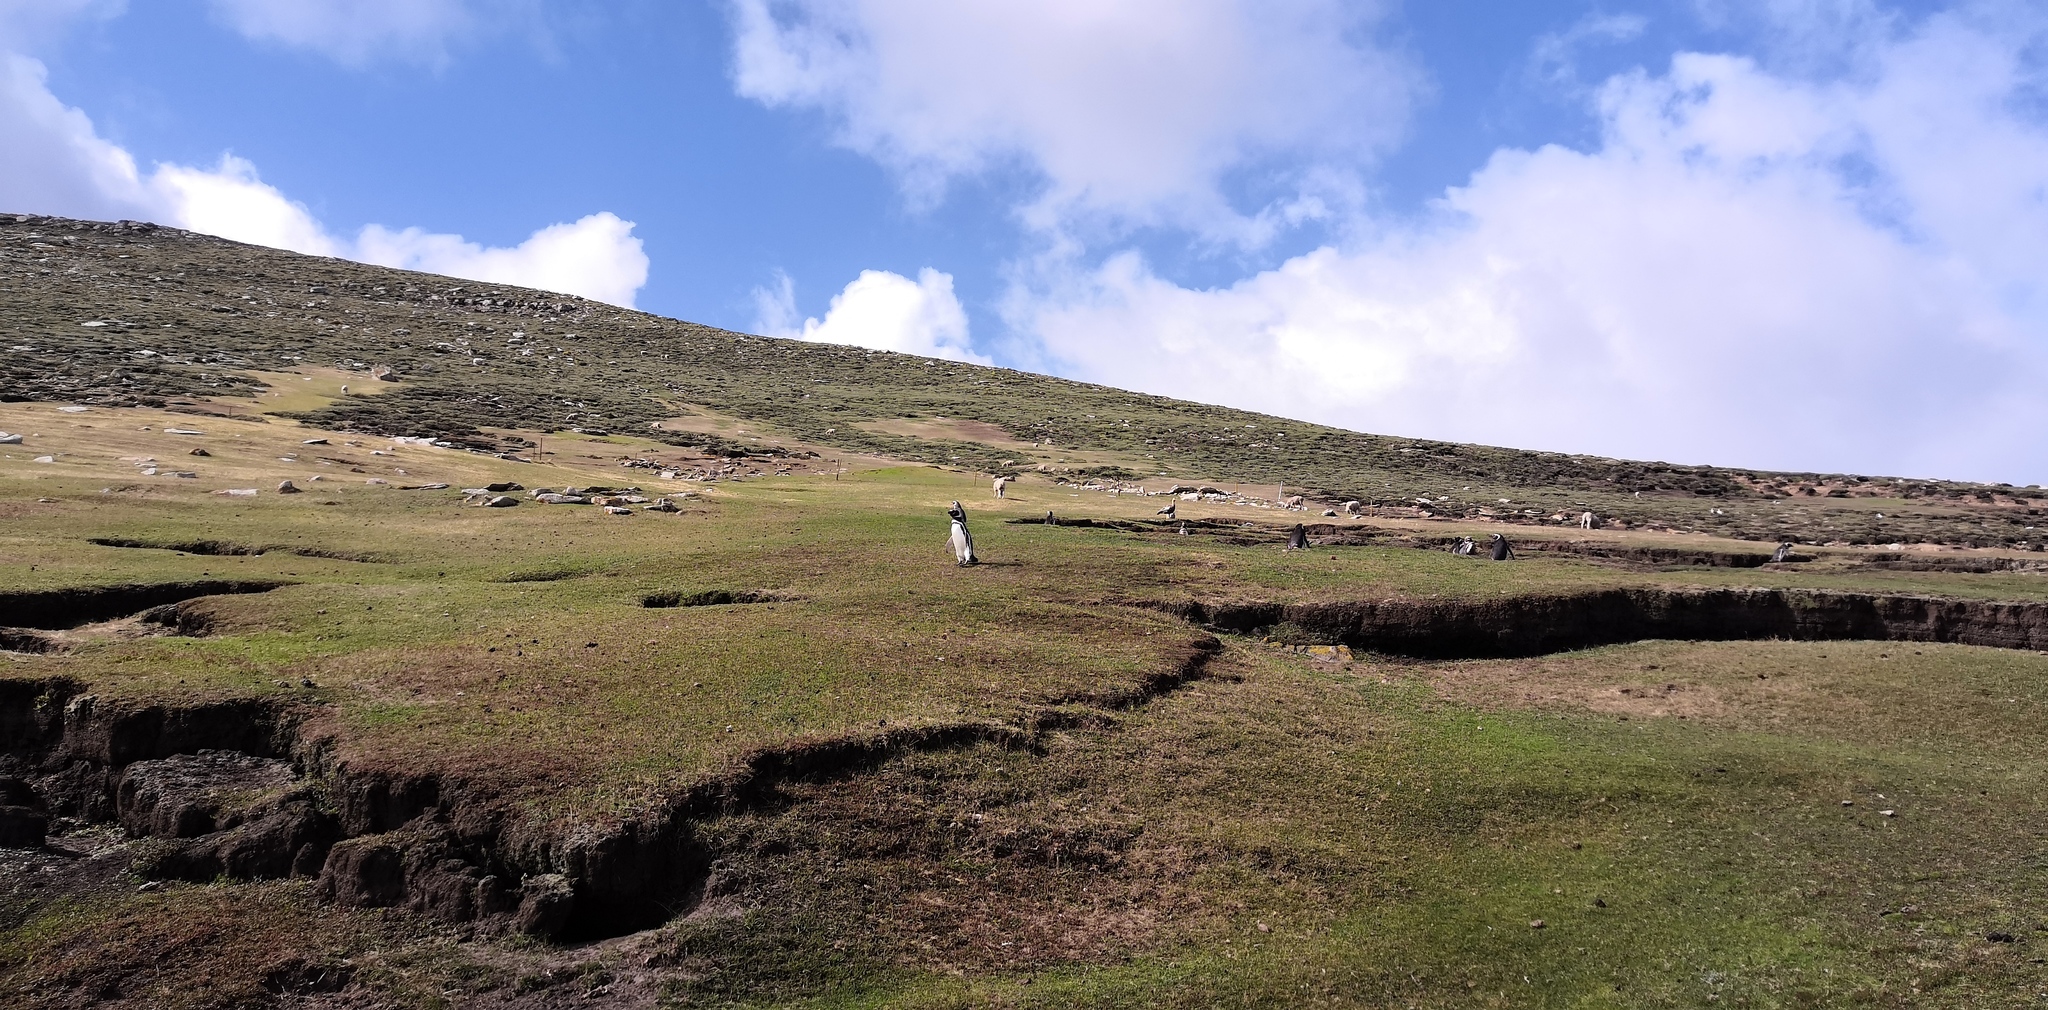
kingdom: Animalia
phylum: Chordata
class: Aves
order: Sphenisciformes
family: Spheniscidae
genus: Spheniscus
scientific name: Spheniscus magellanicus
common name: Magellanic penguin
